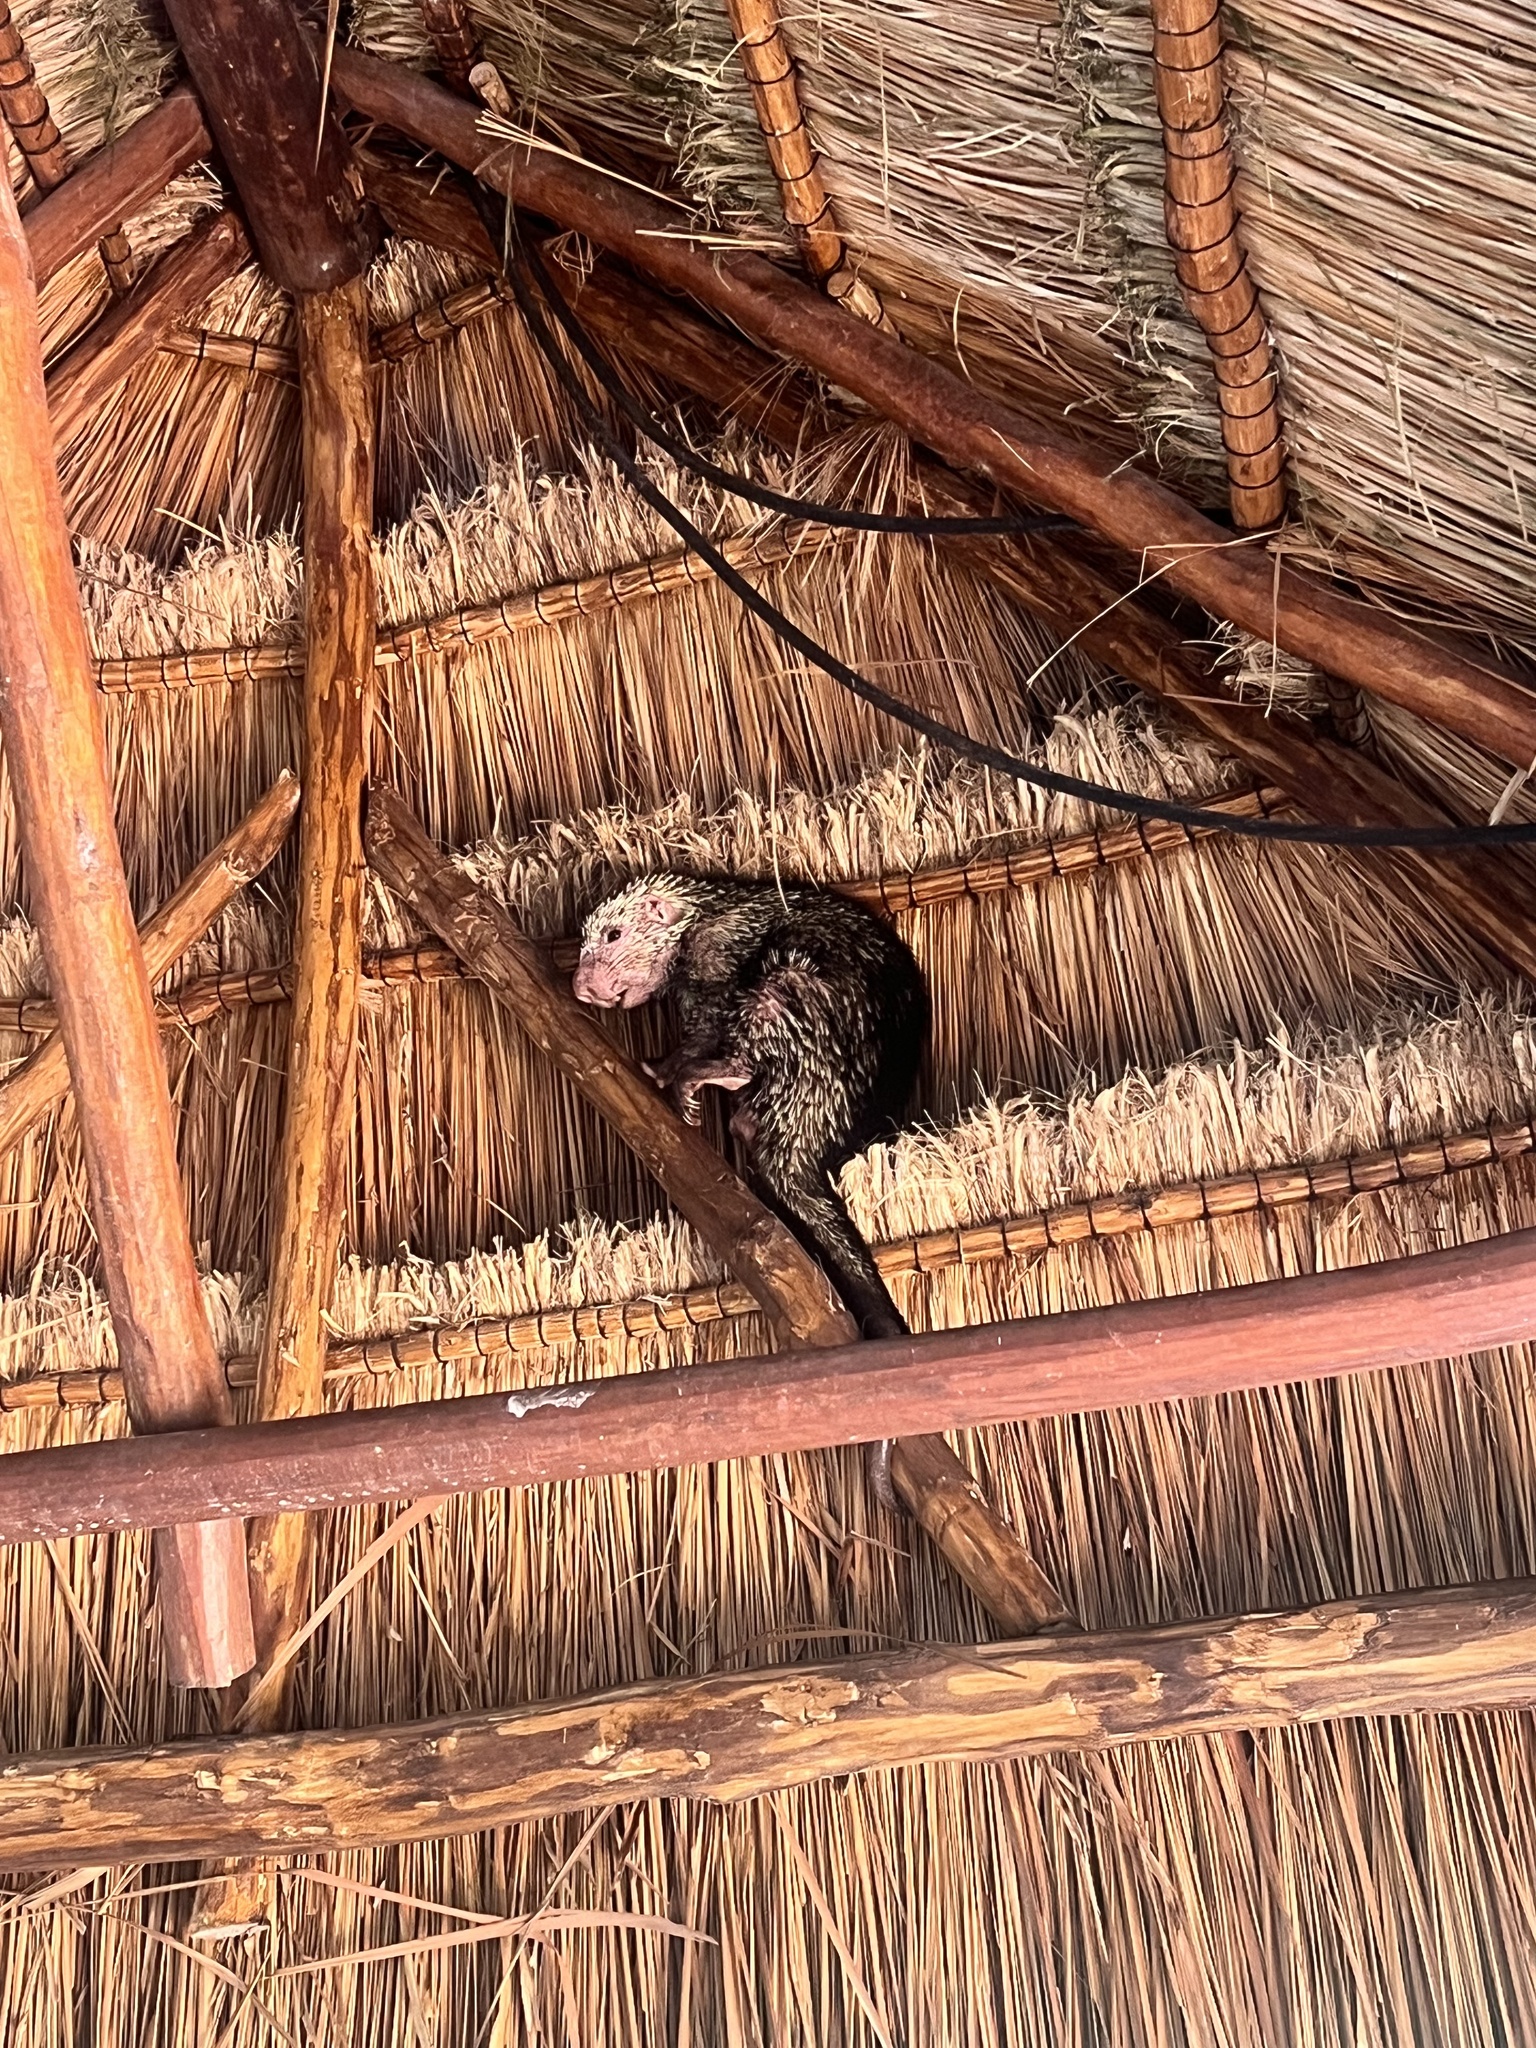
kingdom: Animalia
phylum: Chordata
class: Mammalia
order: Rodentia
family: Erethizontidae
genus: Sphiggurus
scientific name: Sphiggurus mexicanus
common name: Mexican hairy dwarf porcupine
